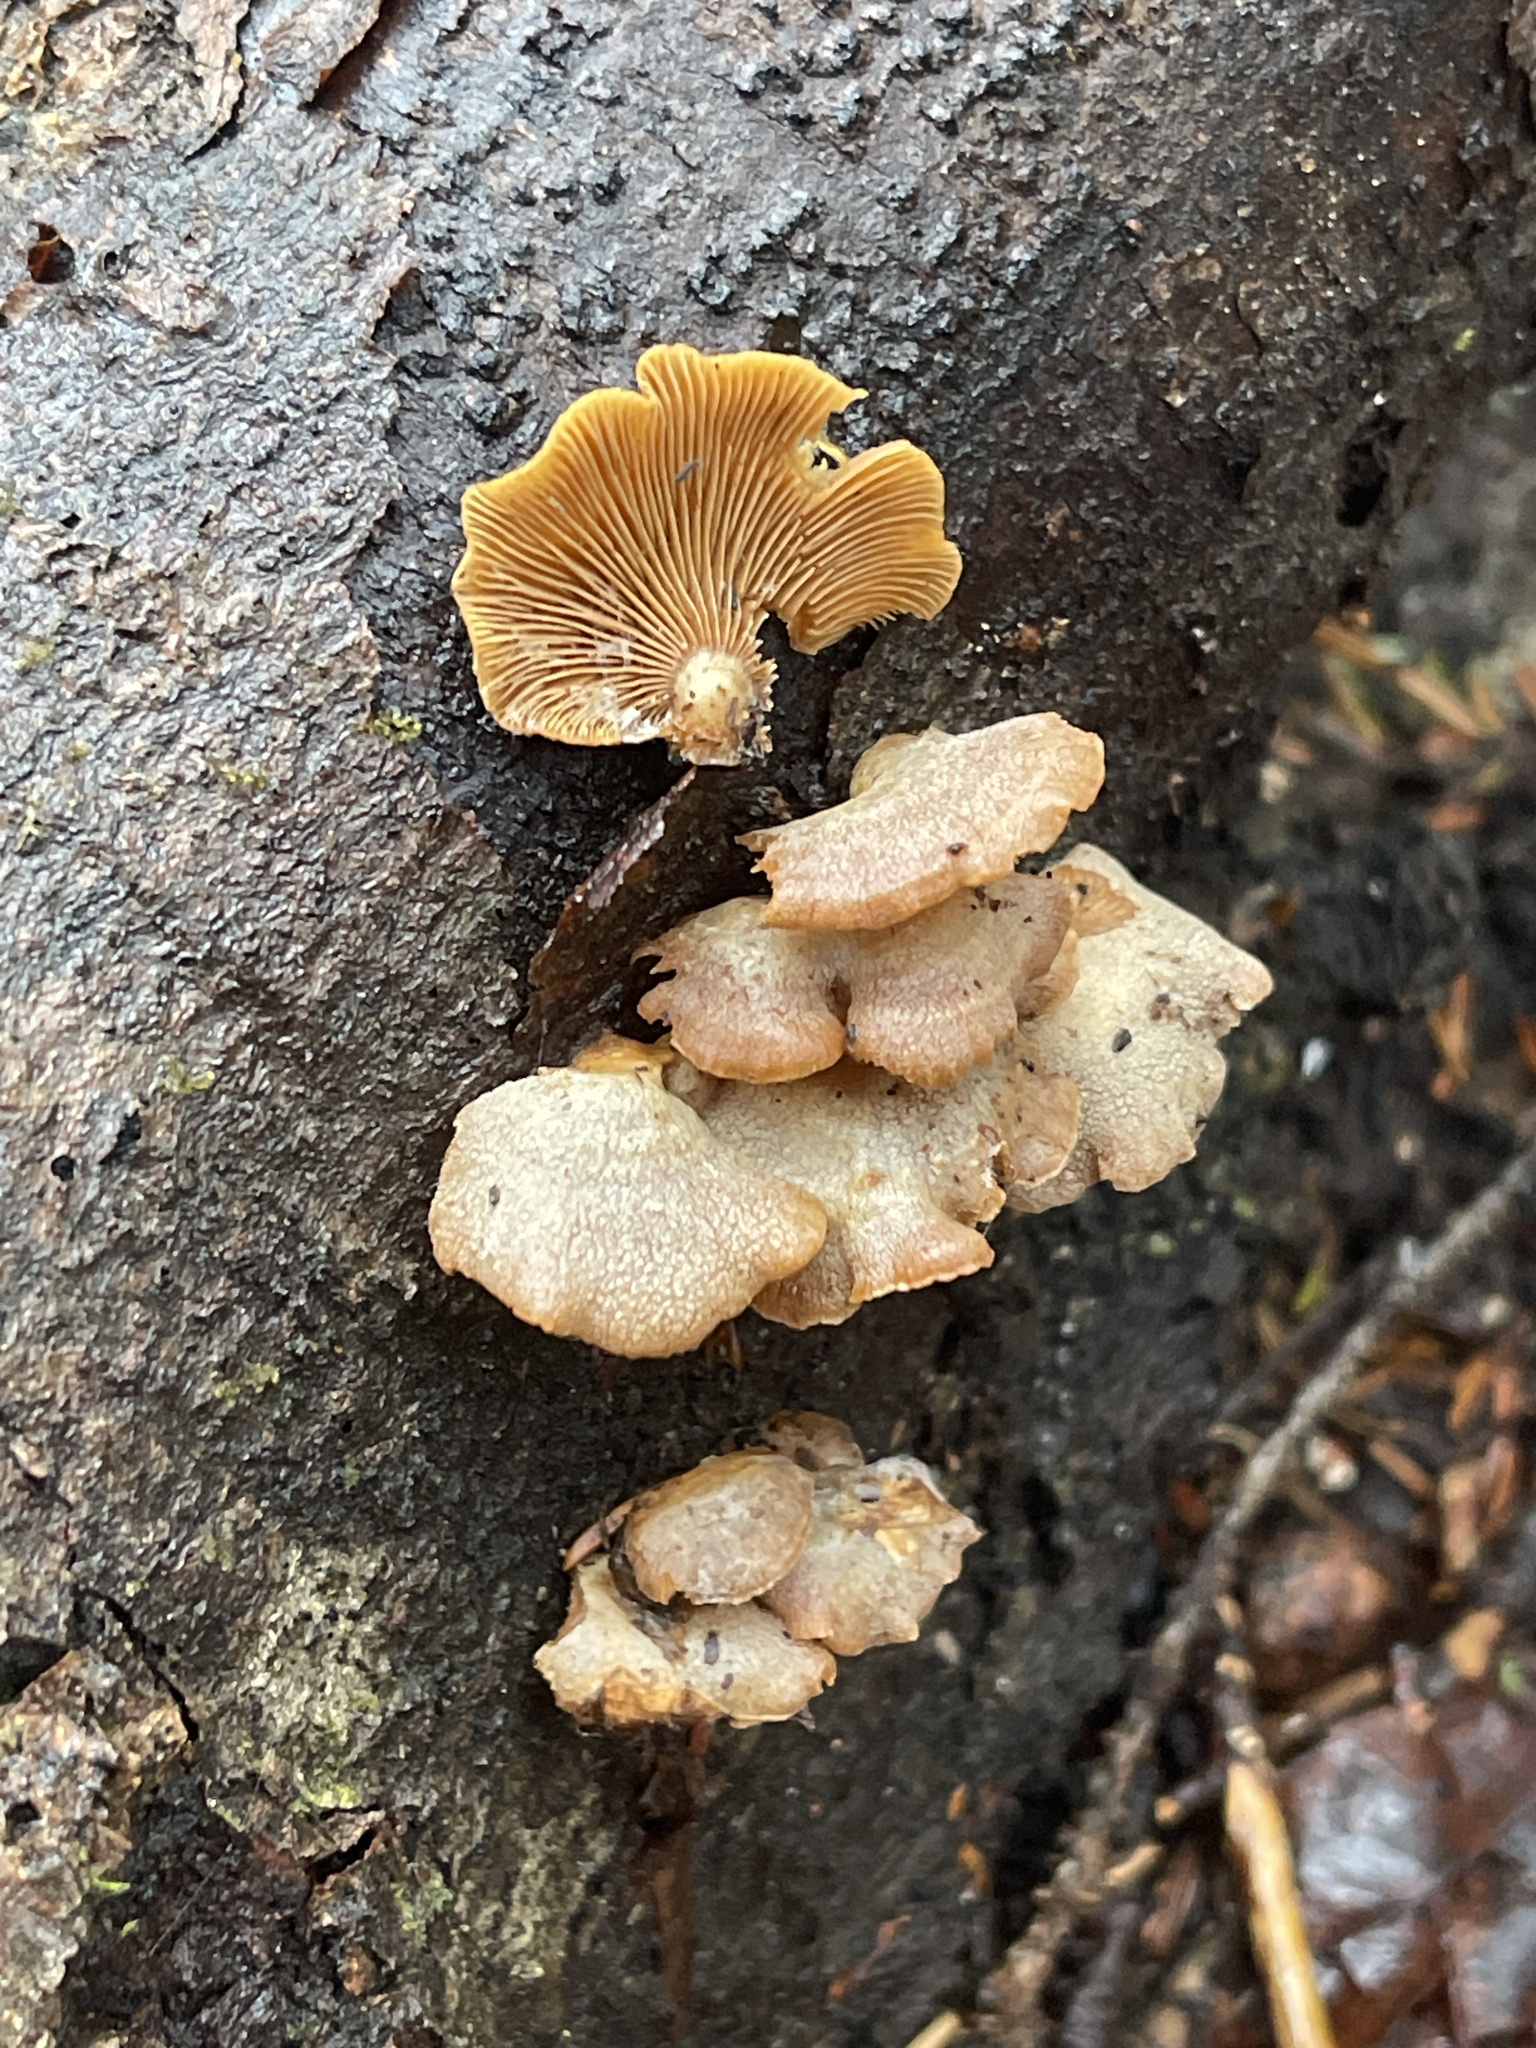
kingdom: Fungi
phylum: Basidiomycota
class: Agaricomycetes
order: Agaricales
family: Mycenaceae
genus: Panellus
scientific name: Panellus stipticus
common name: Bitter oysterling
